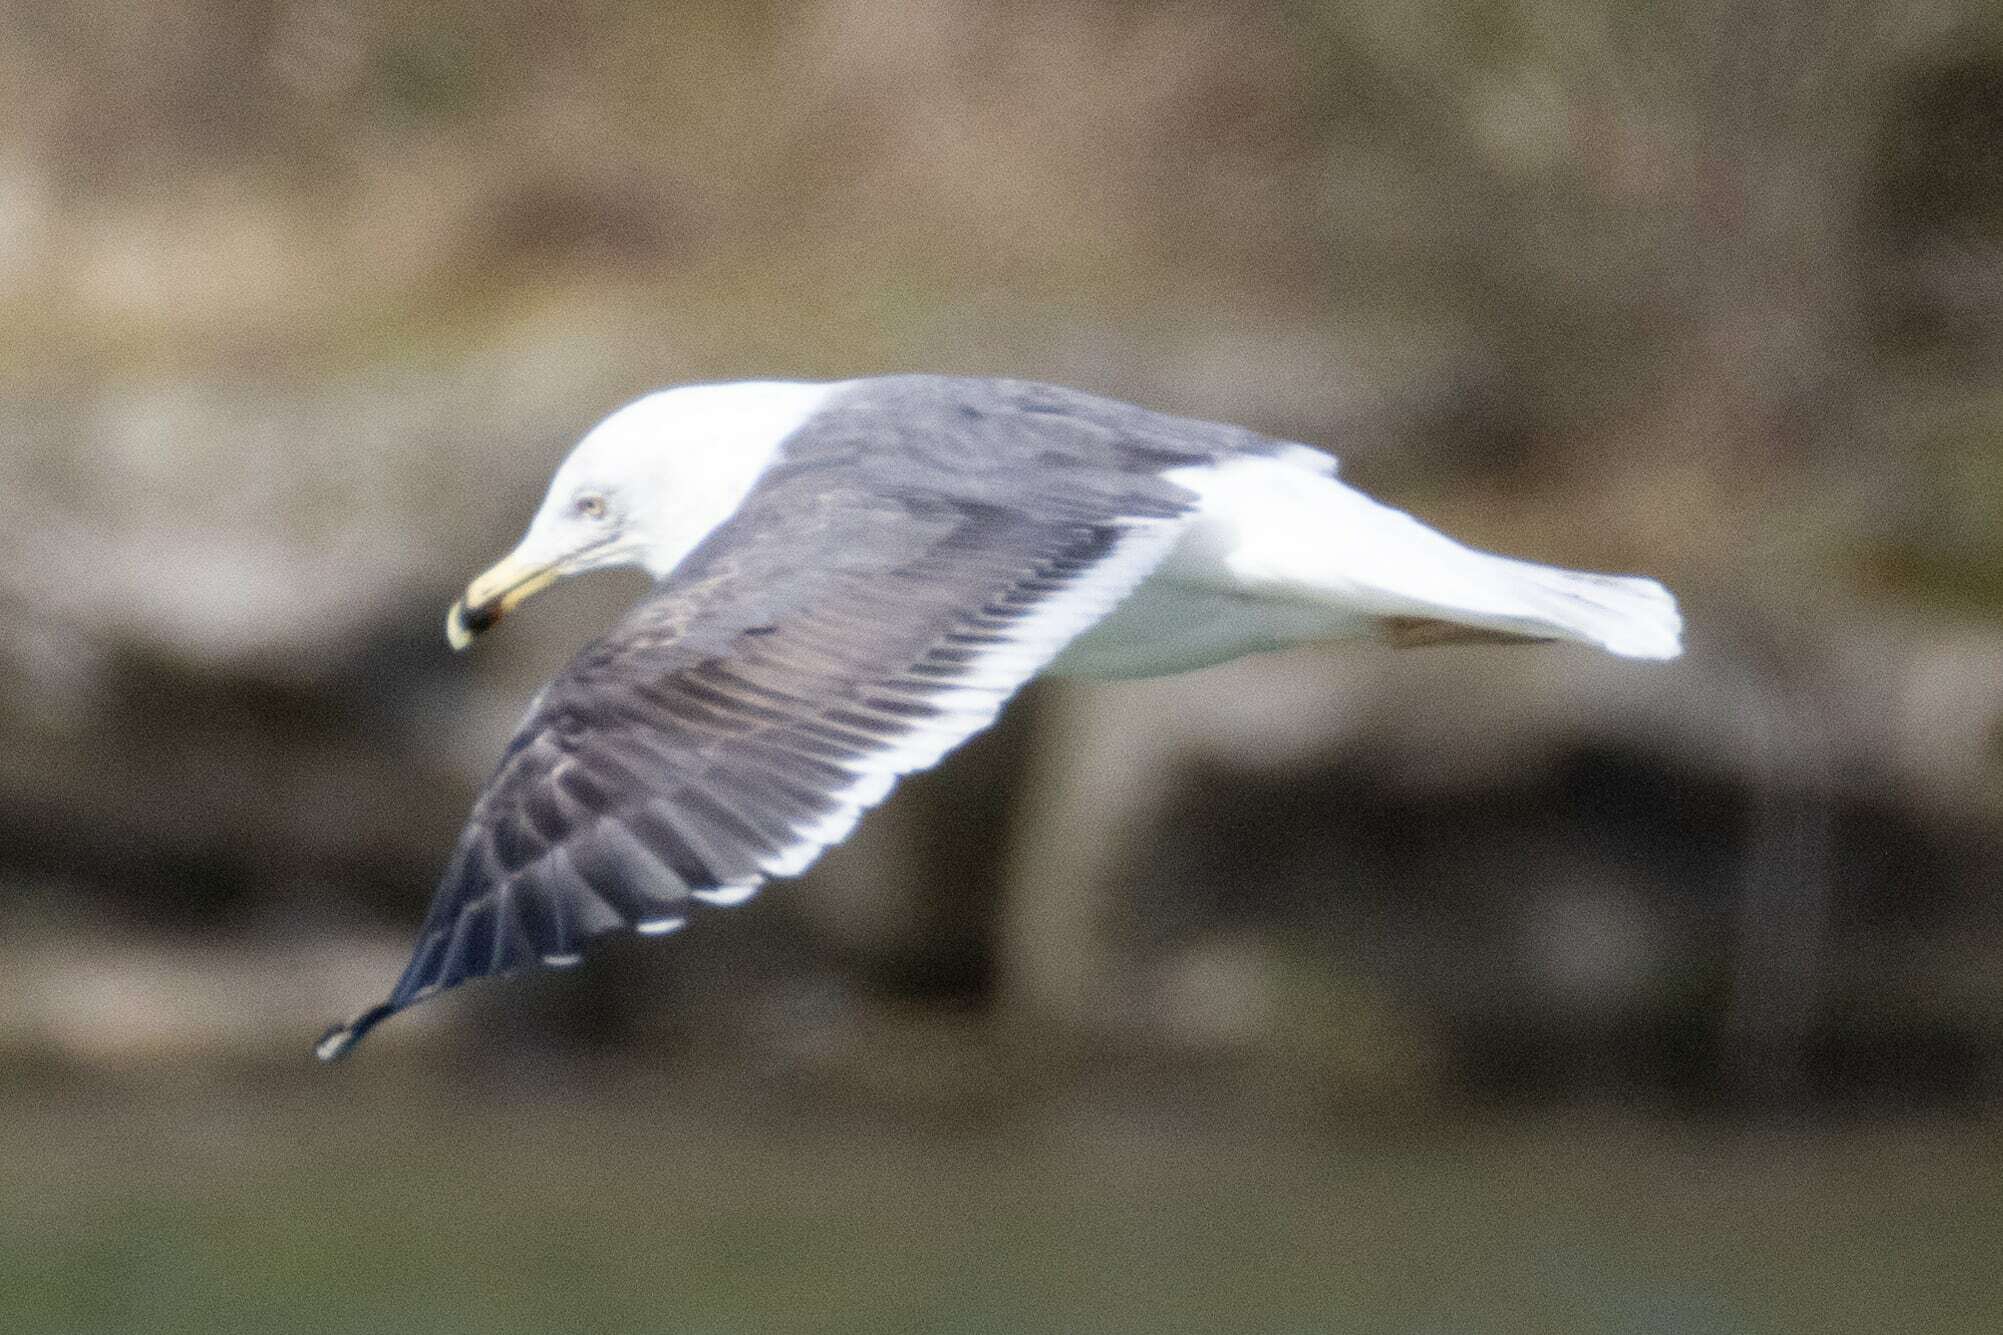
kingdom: Animalia
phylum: Chordata
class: Aves
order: Charadriiformes
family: Laridae
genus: Larus
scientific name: Larus fuscus
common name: Lesser black-backed gull
